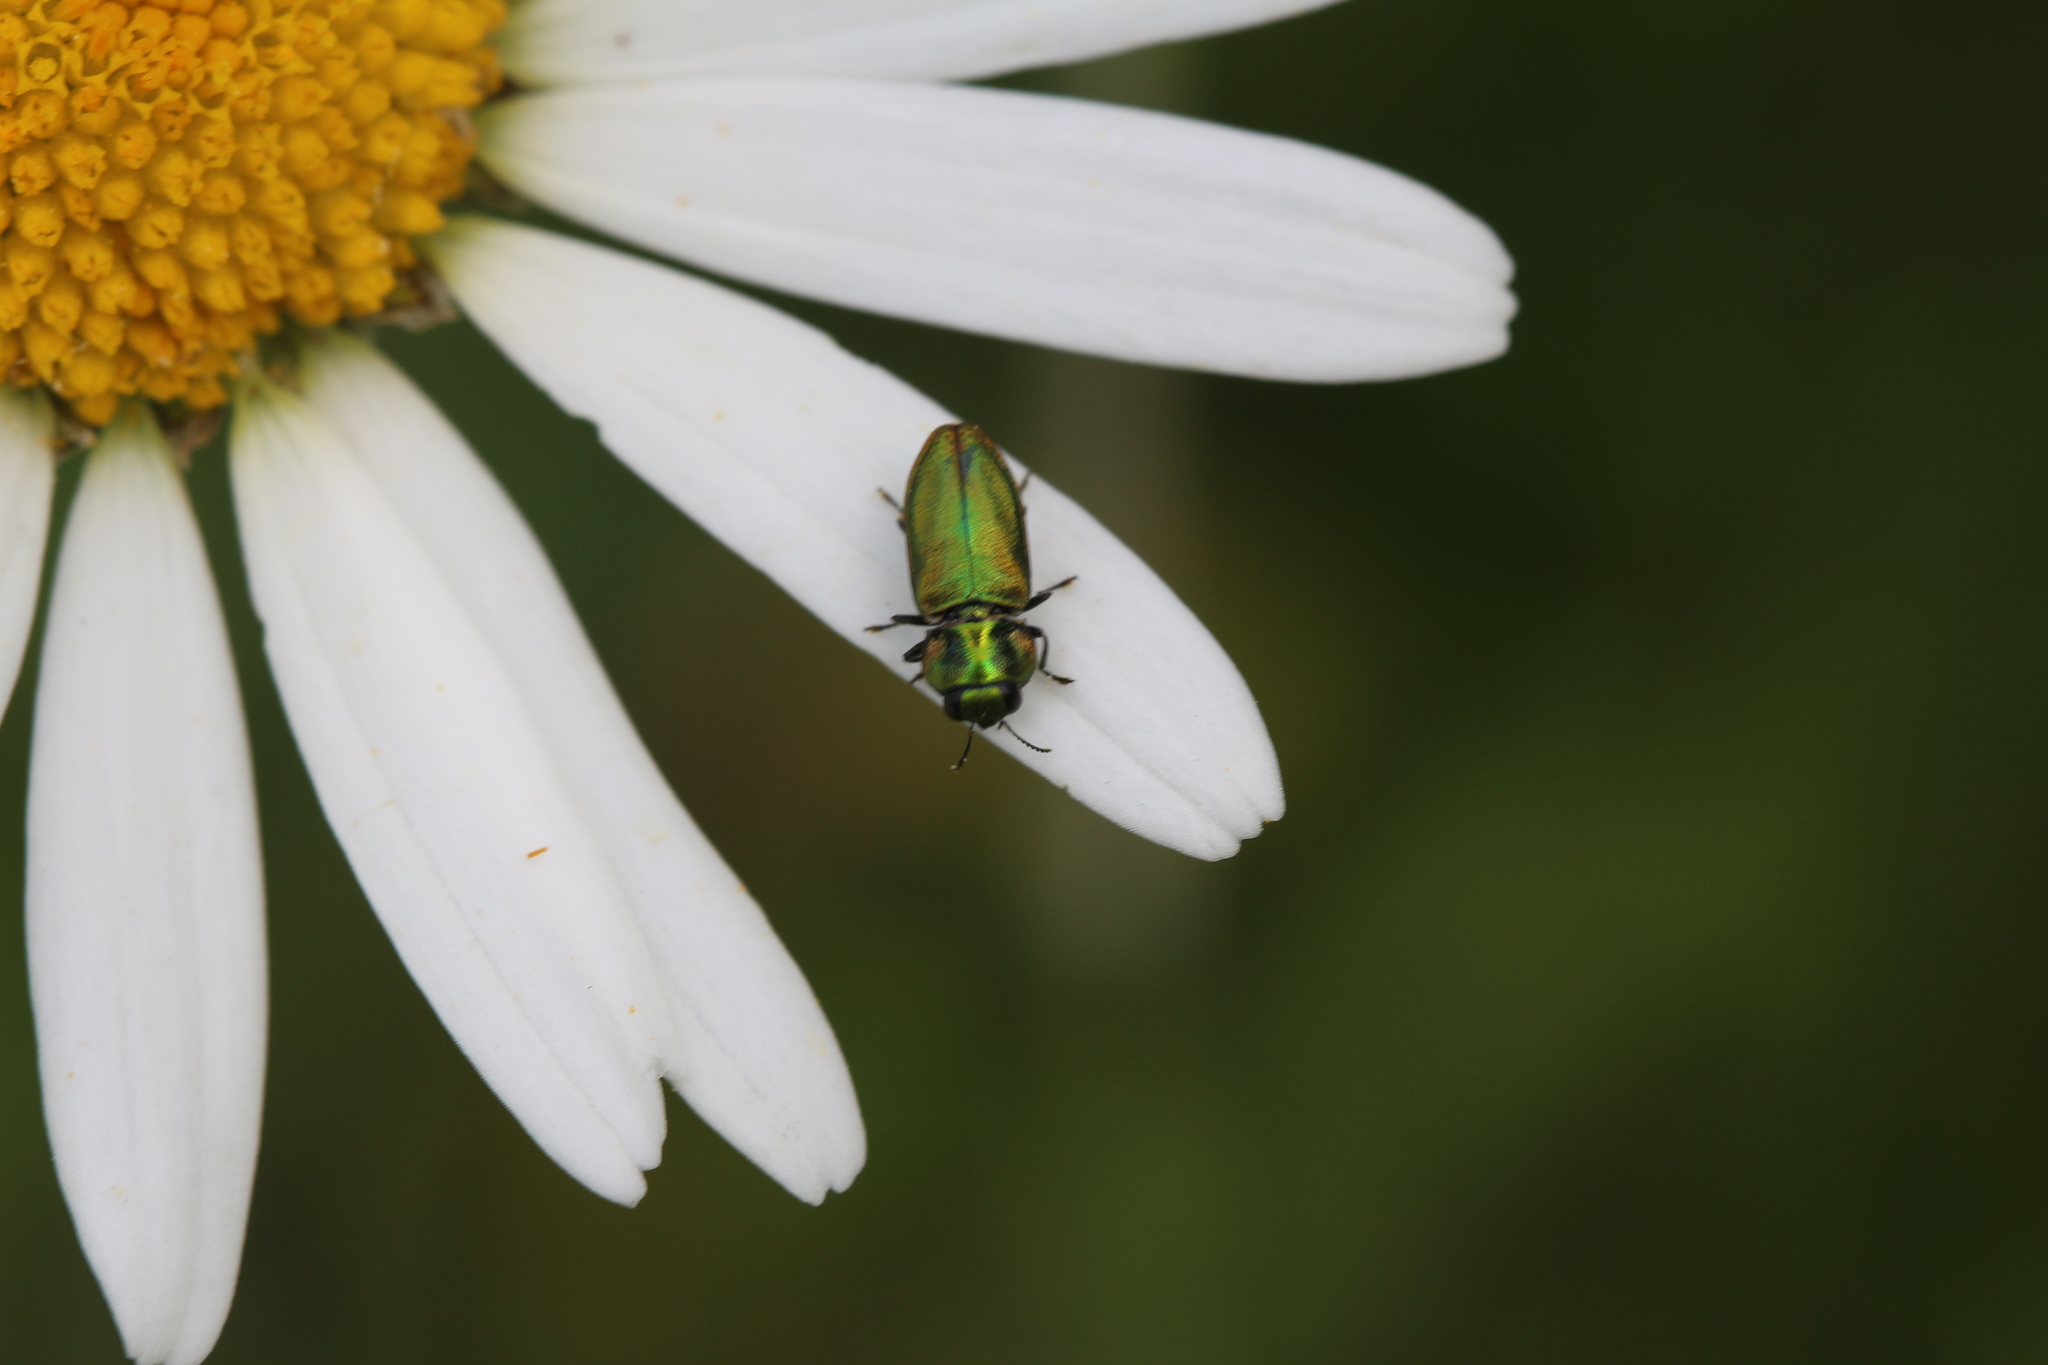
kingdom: Animalia
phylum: Arthropoda
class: Insecta
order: Coleoptera
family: Buprestidae
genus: Anthaxia
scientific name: Anthaxia fulgurans
